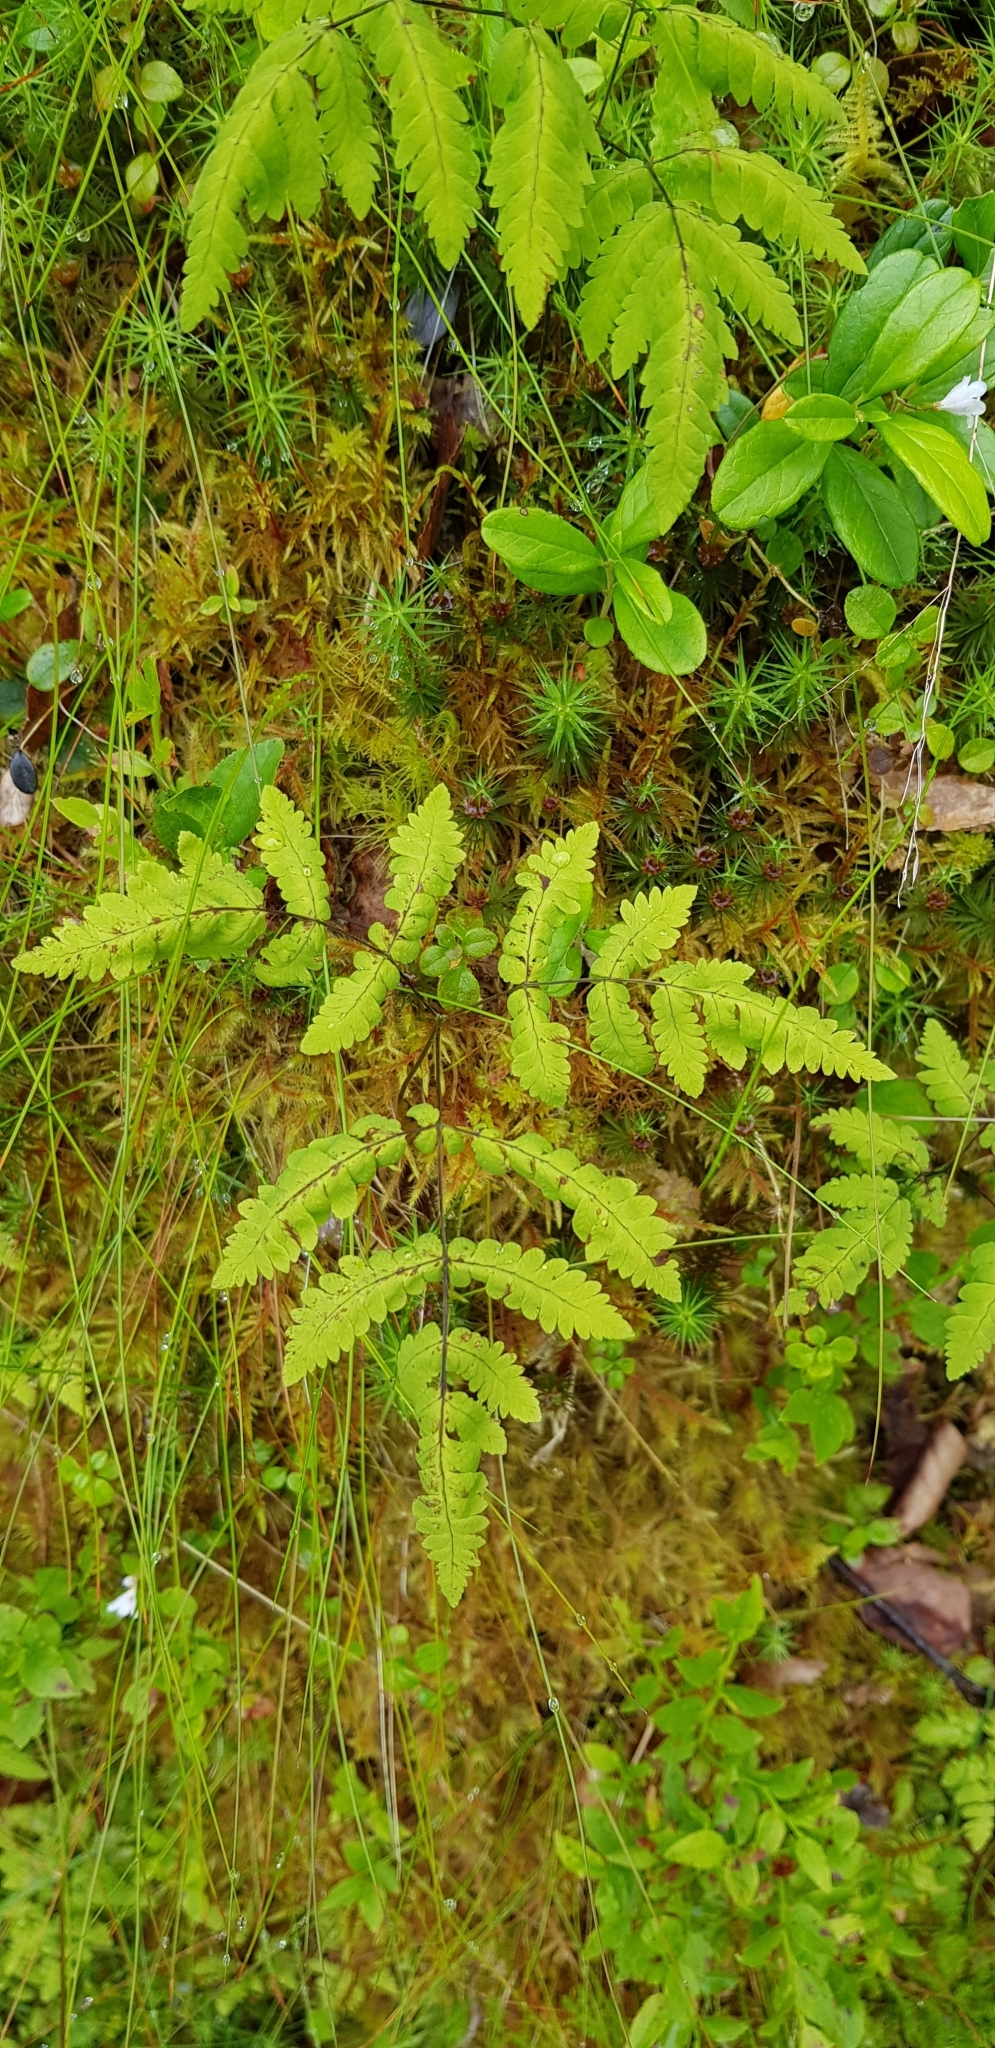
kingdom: Plantae
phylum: Tracheophyta
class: Polypodiopsida
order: Polypodiales
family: Cystopteridaceae
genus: Gymnocarpium
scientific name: Gymnocarpium dryopteris
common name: Oak fern
